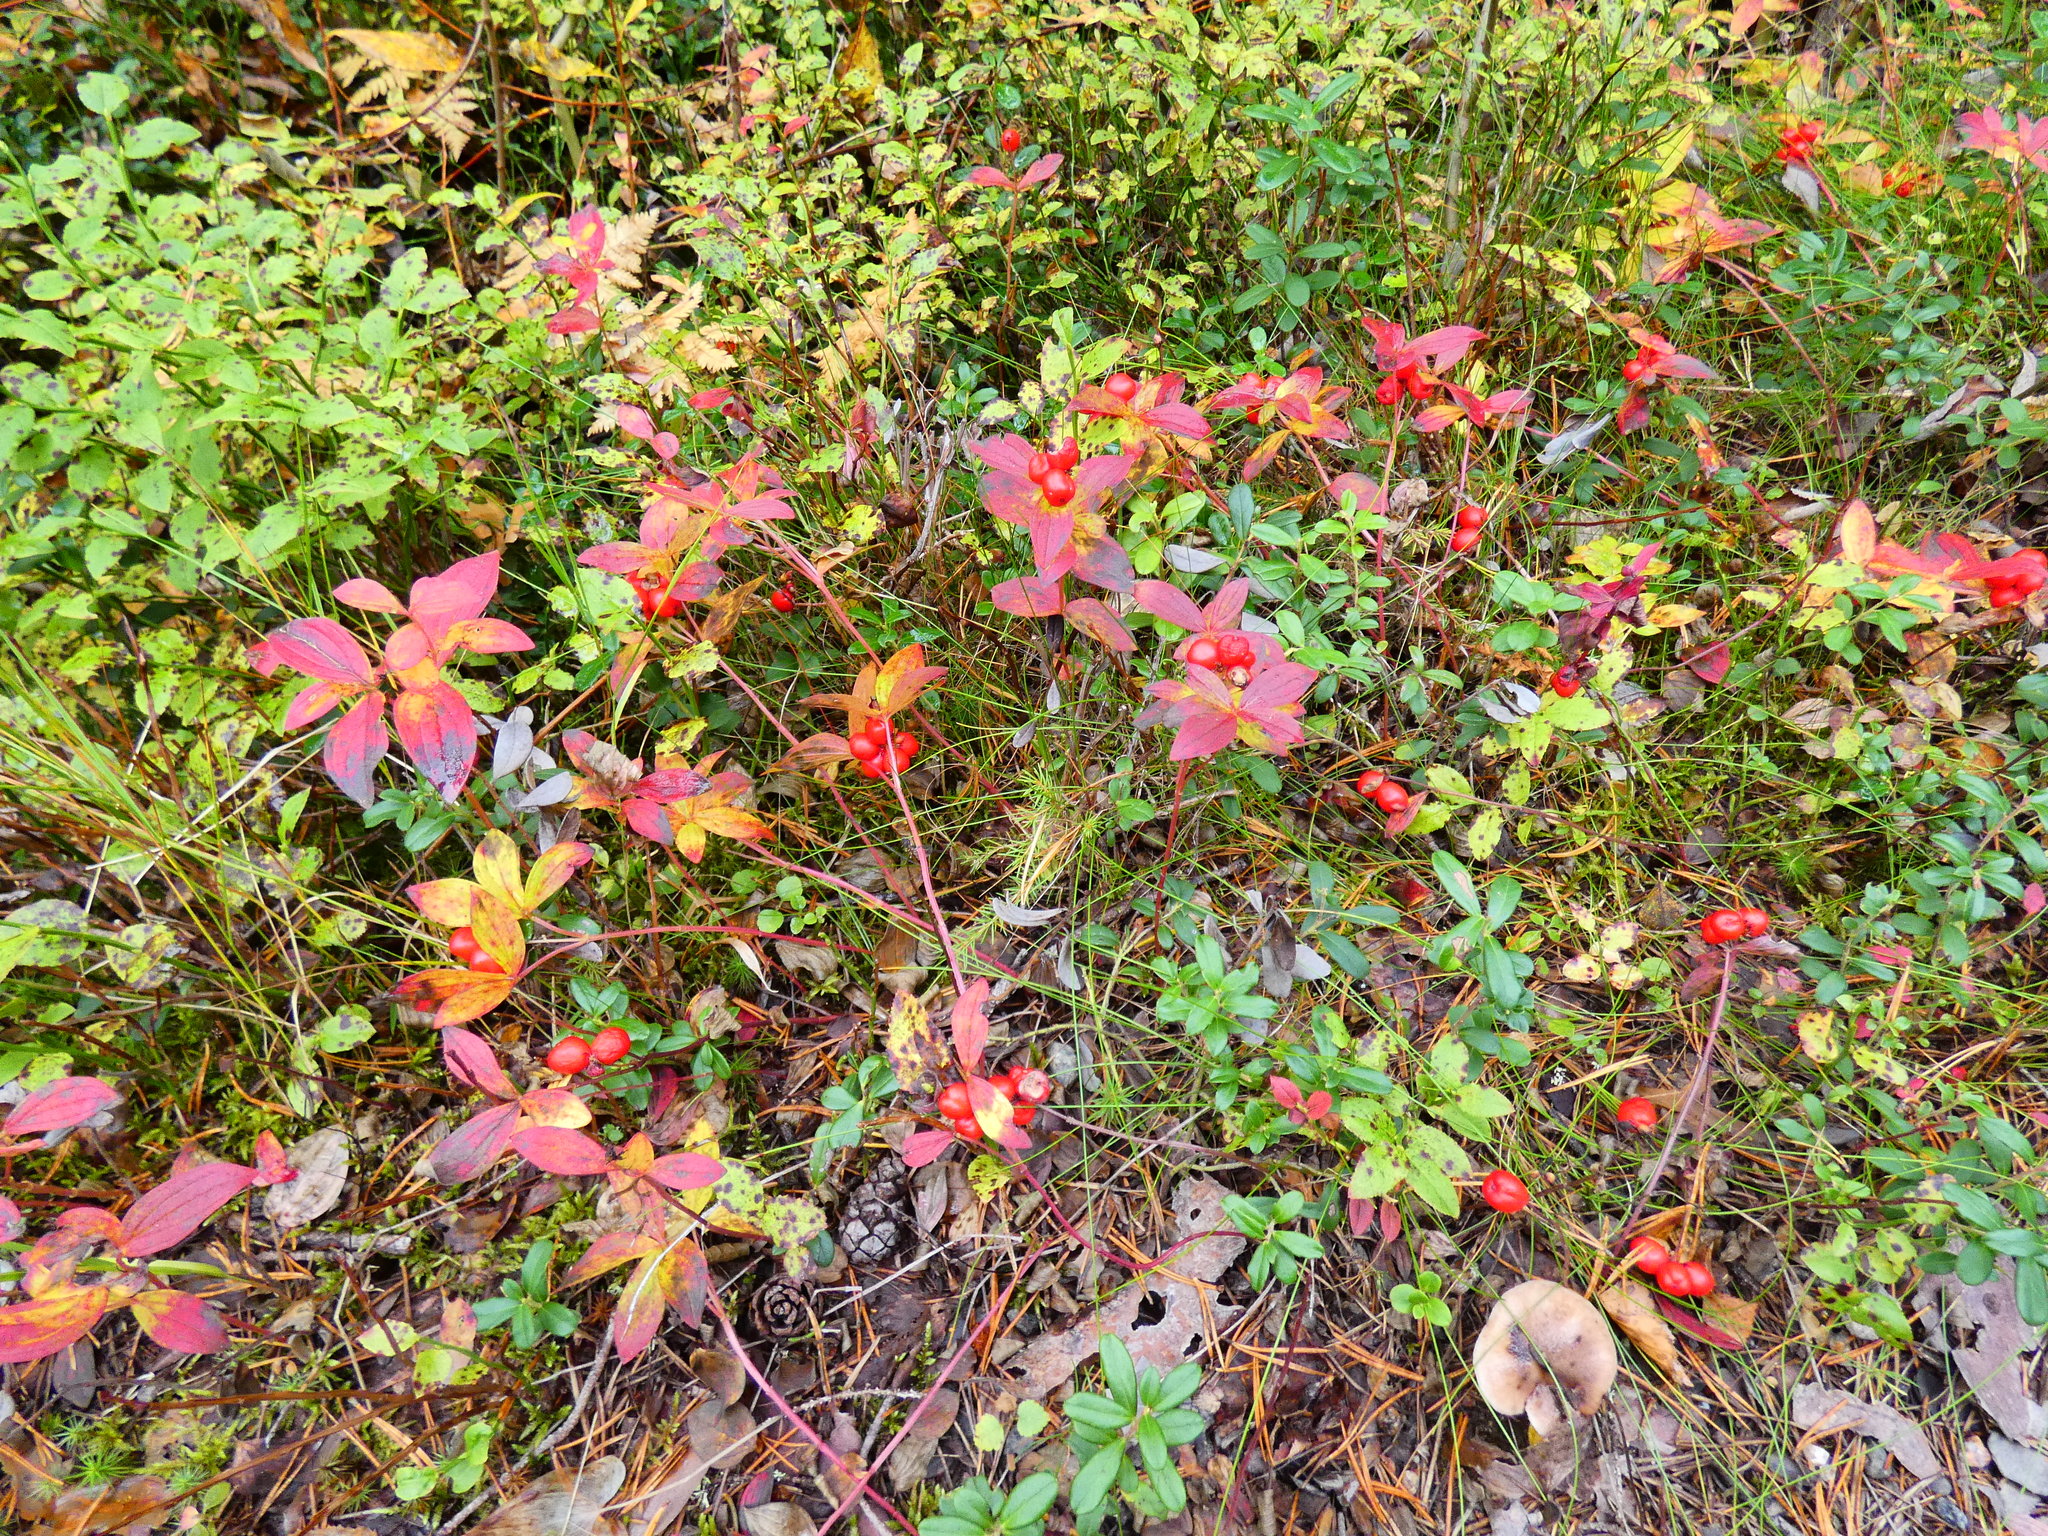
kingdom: Plantae
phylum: Tracheophyta
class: Magnoliopsida
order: Cornales
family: Cornaceae
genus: Cornus
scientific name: Cornus suecica
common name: Dwarf cornel
